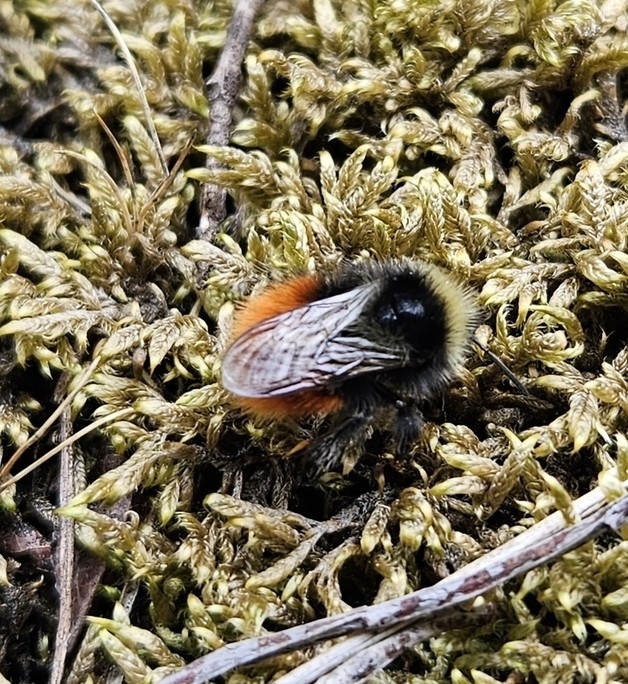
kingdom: Animalia
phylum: Arthropoda
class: Insecta
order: Hymenoptera
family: Apidae
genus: Bombus
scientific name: Bombus monticola
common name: Bilberry humble-bee
